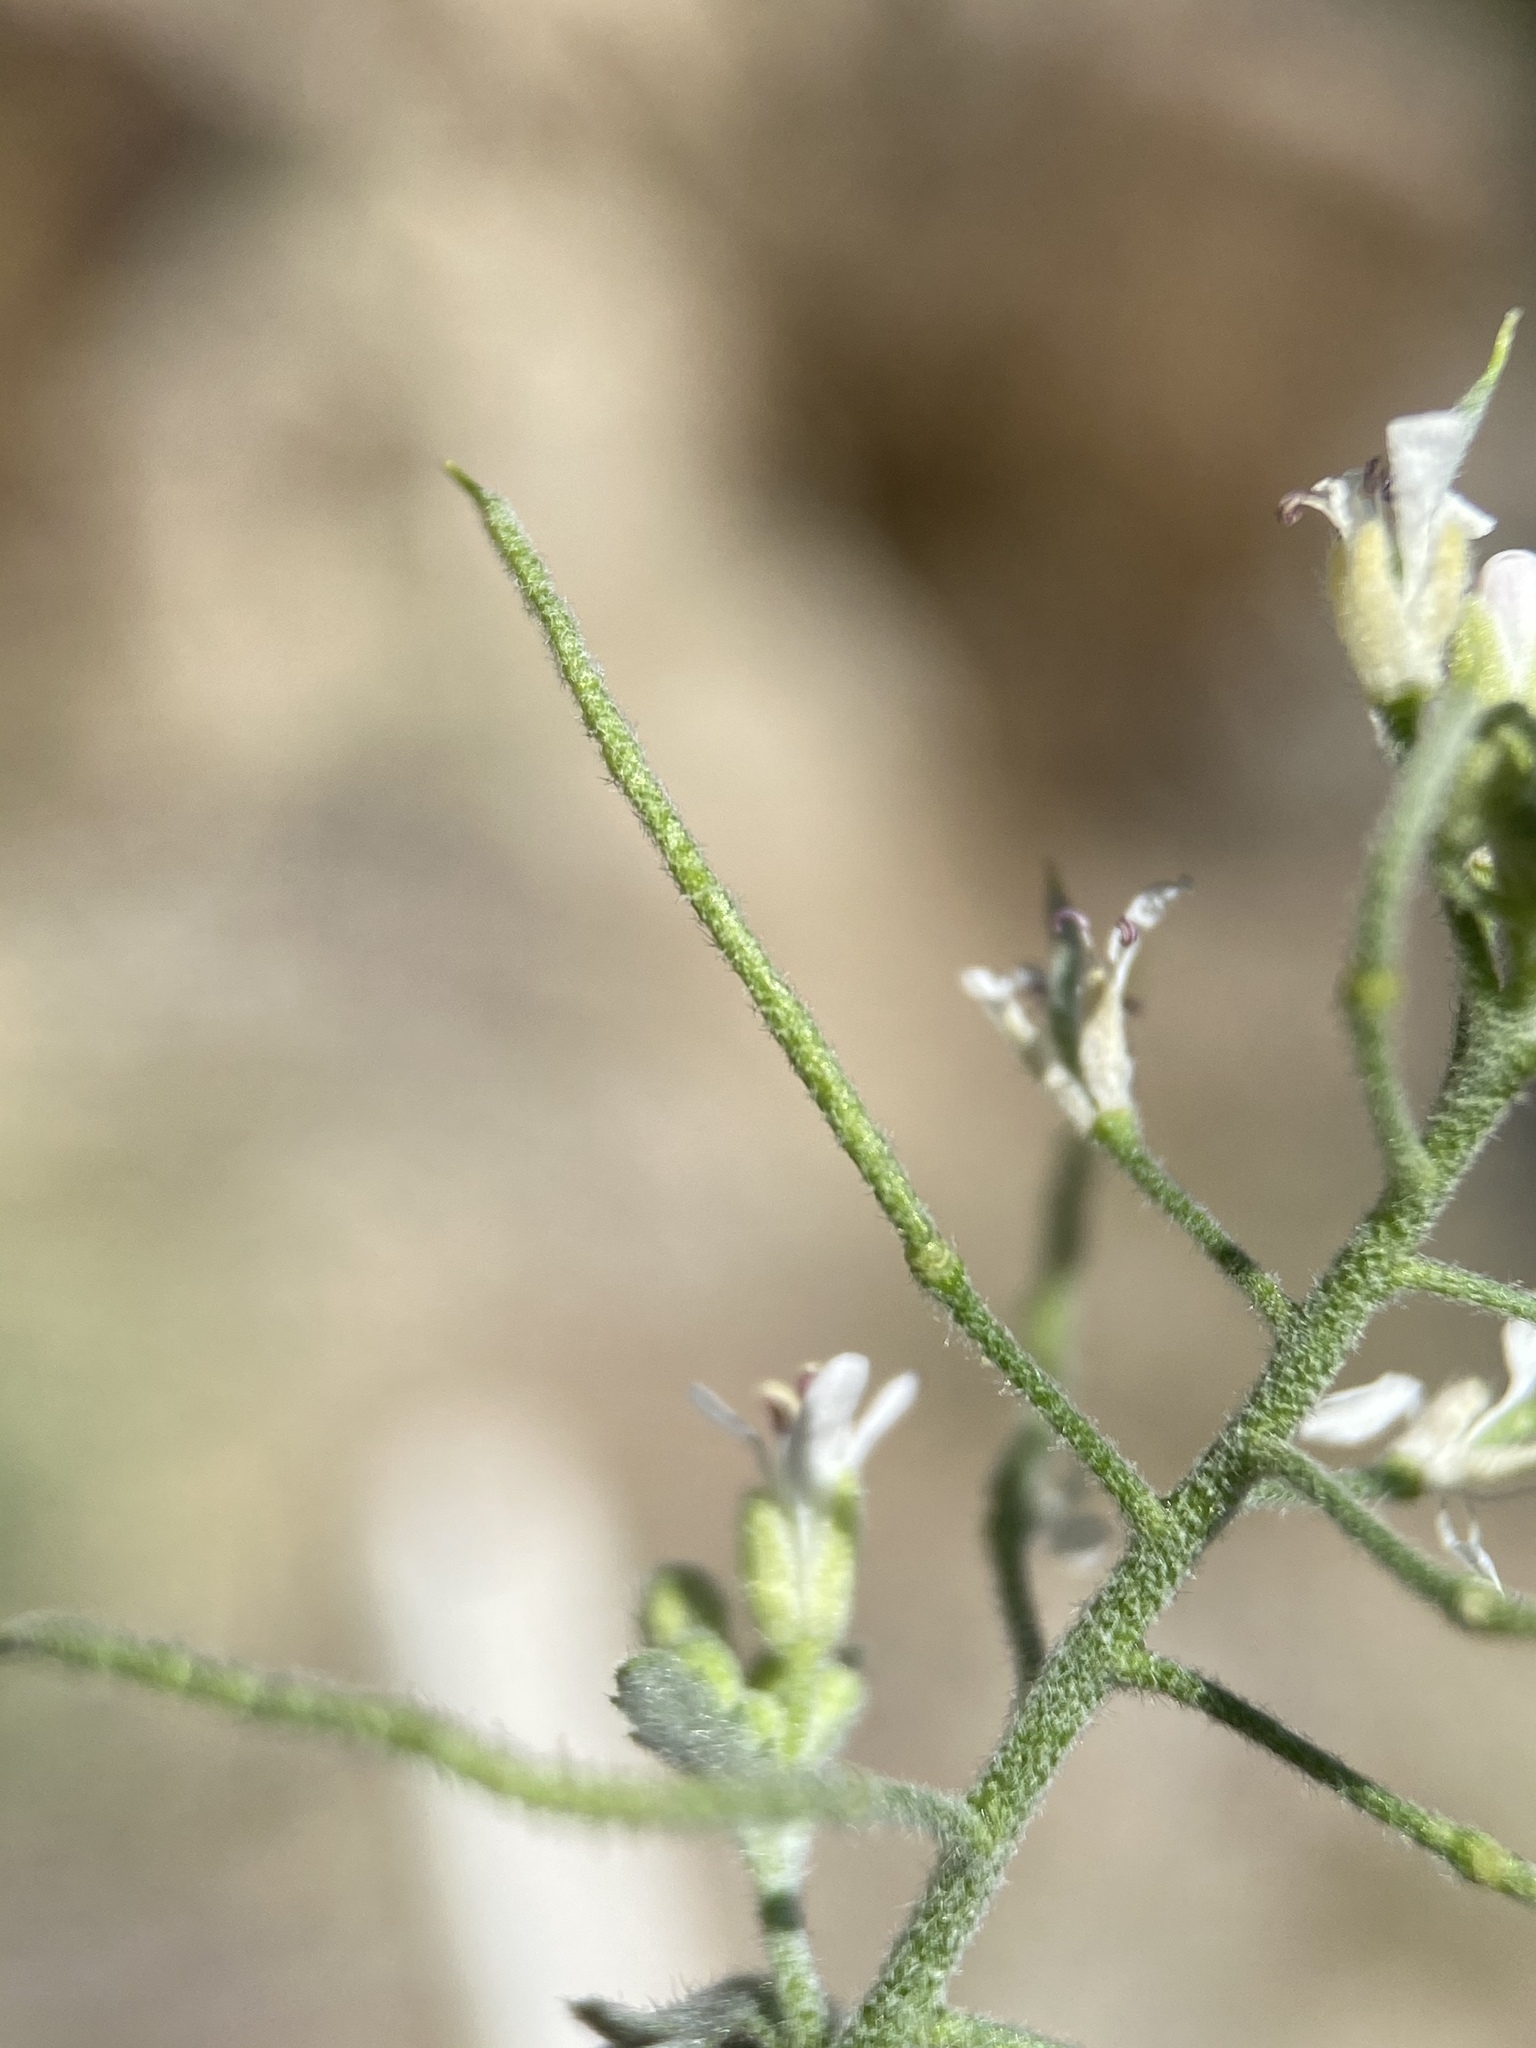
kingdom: Plantae
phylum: Tracheophyta
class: Magnoliopsida
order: Brassicales
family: Brassicaceae
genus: Halimolobos
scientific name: Halimolobos jaegeri
